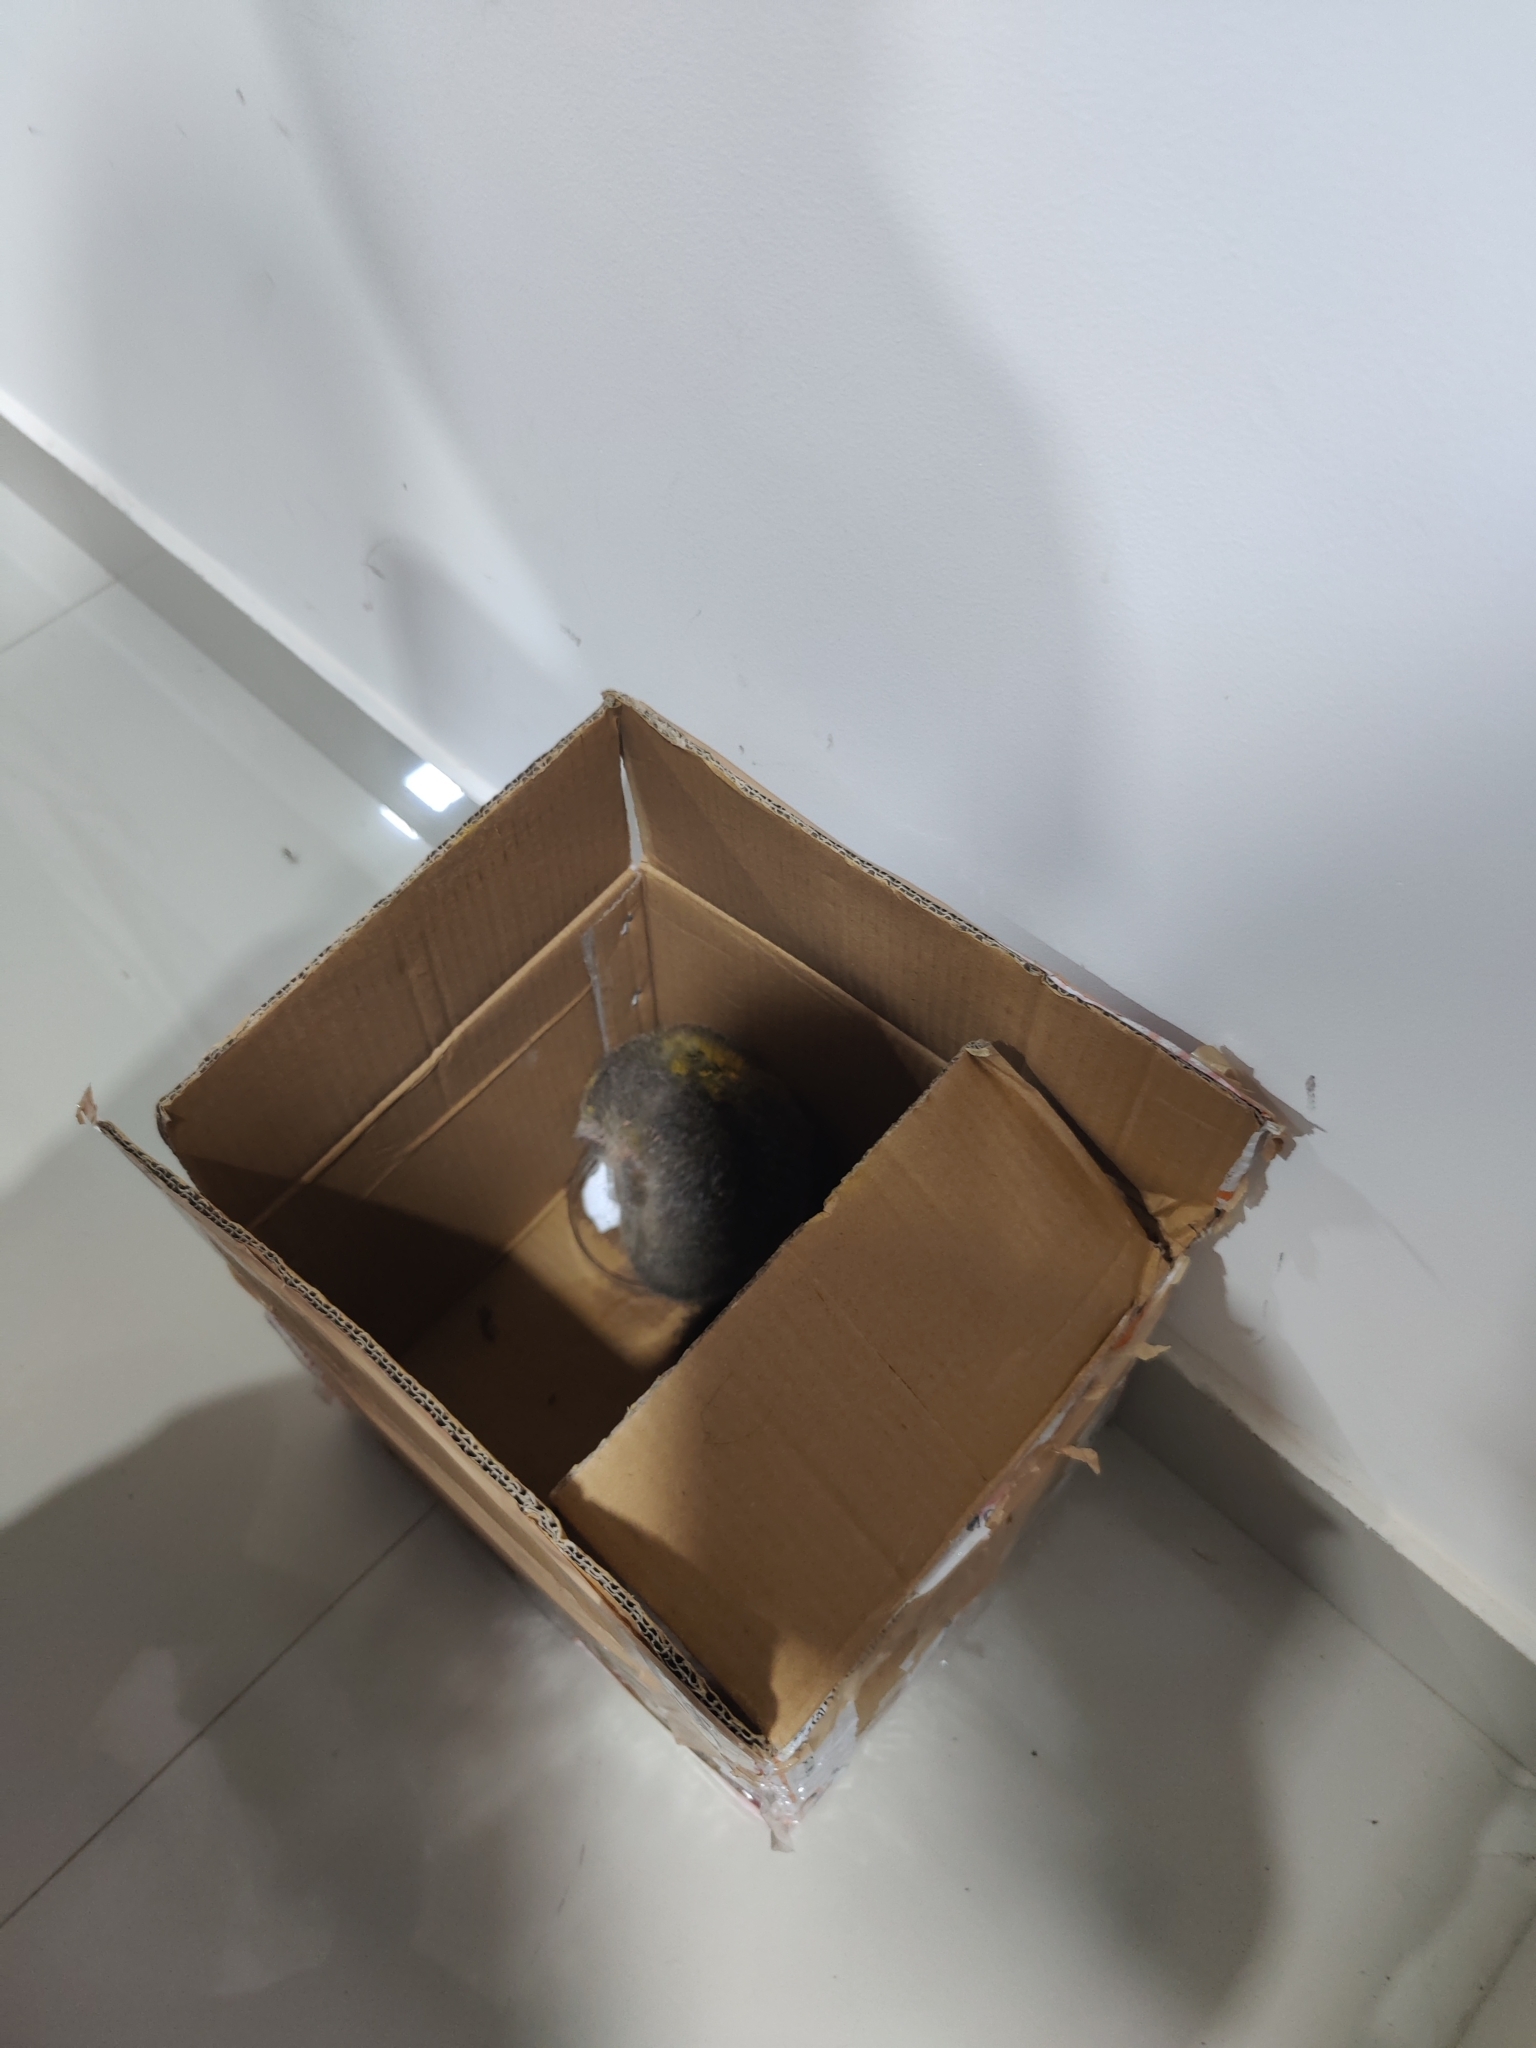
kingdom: Animalia
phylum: Chordata
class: Mammalia
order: Primates
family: Lorisidae
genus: Loris
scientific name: Loris lydekkerianus
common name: Gray slender loris
